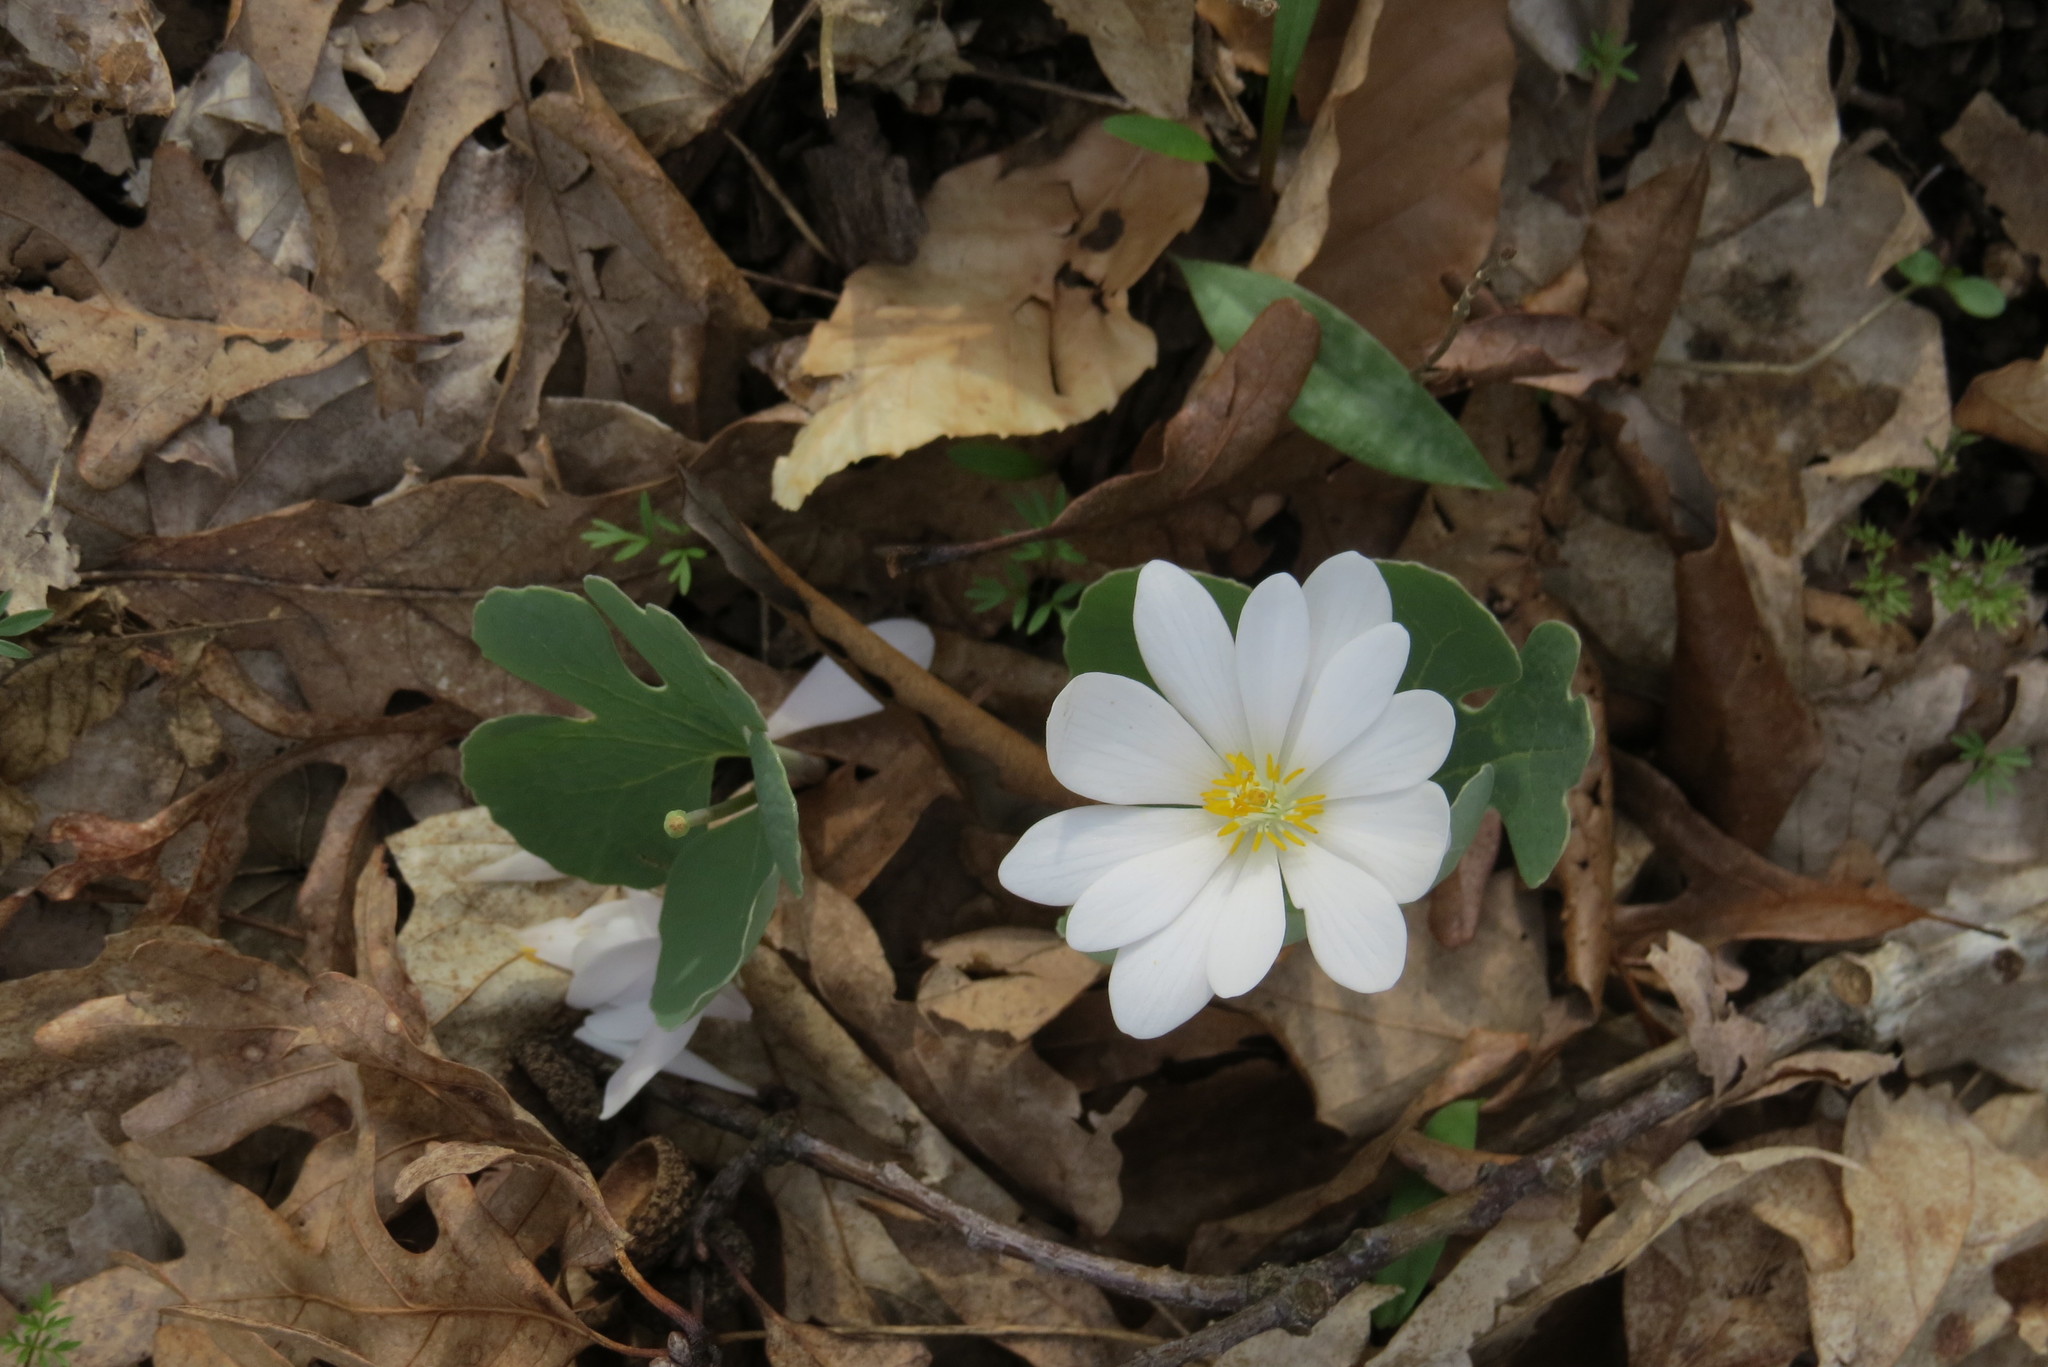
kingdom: Plantae
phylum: Tracheophyta
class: Magnoliopsida
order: Ranunculales
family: Papaveraceae
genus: Sanguinaria
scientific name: Sanguinaria canadensis
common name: Bloodroot
